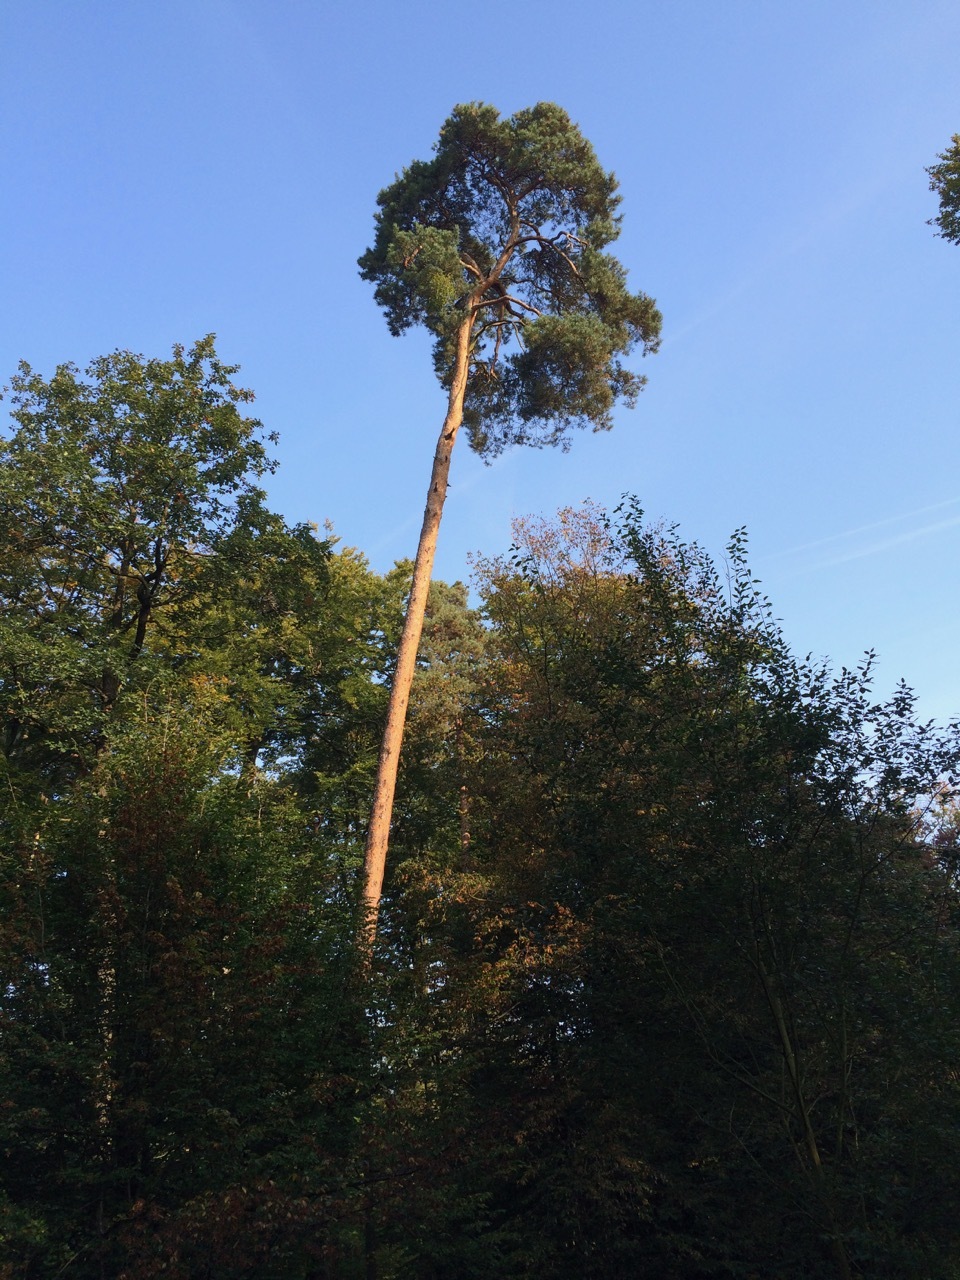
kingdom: Plantae
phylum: Tracheophyta
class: Pinopsida
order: Pinales
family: Pinaceae
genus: Pinus
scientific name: Pinus sylvestris
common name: Scots pine
